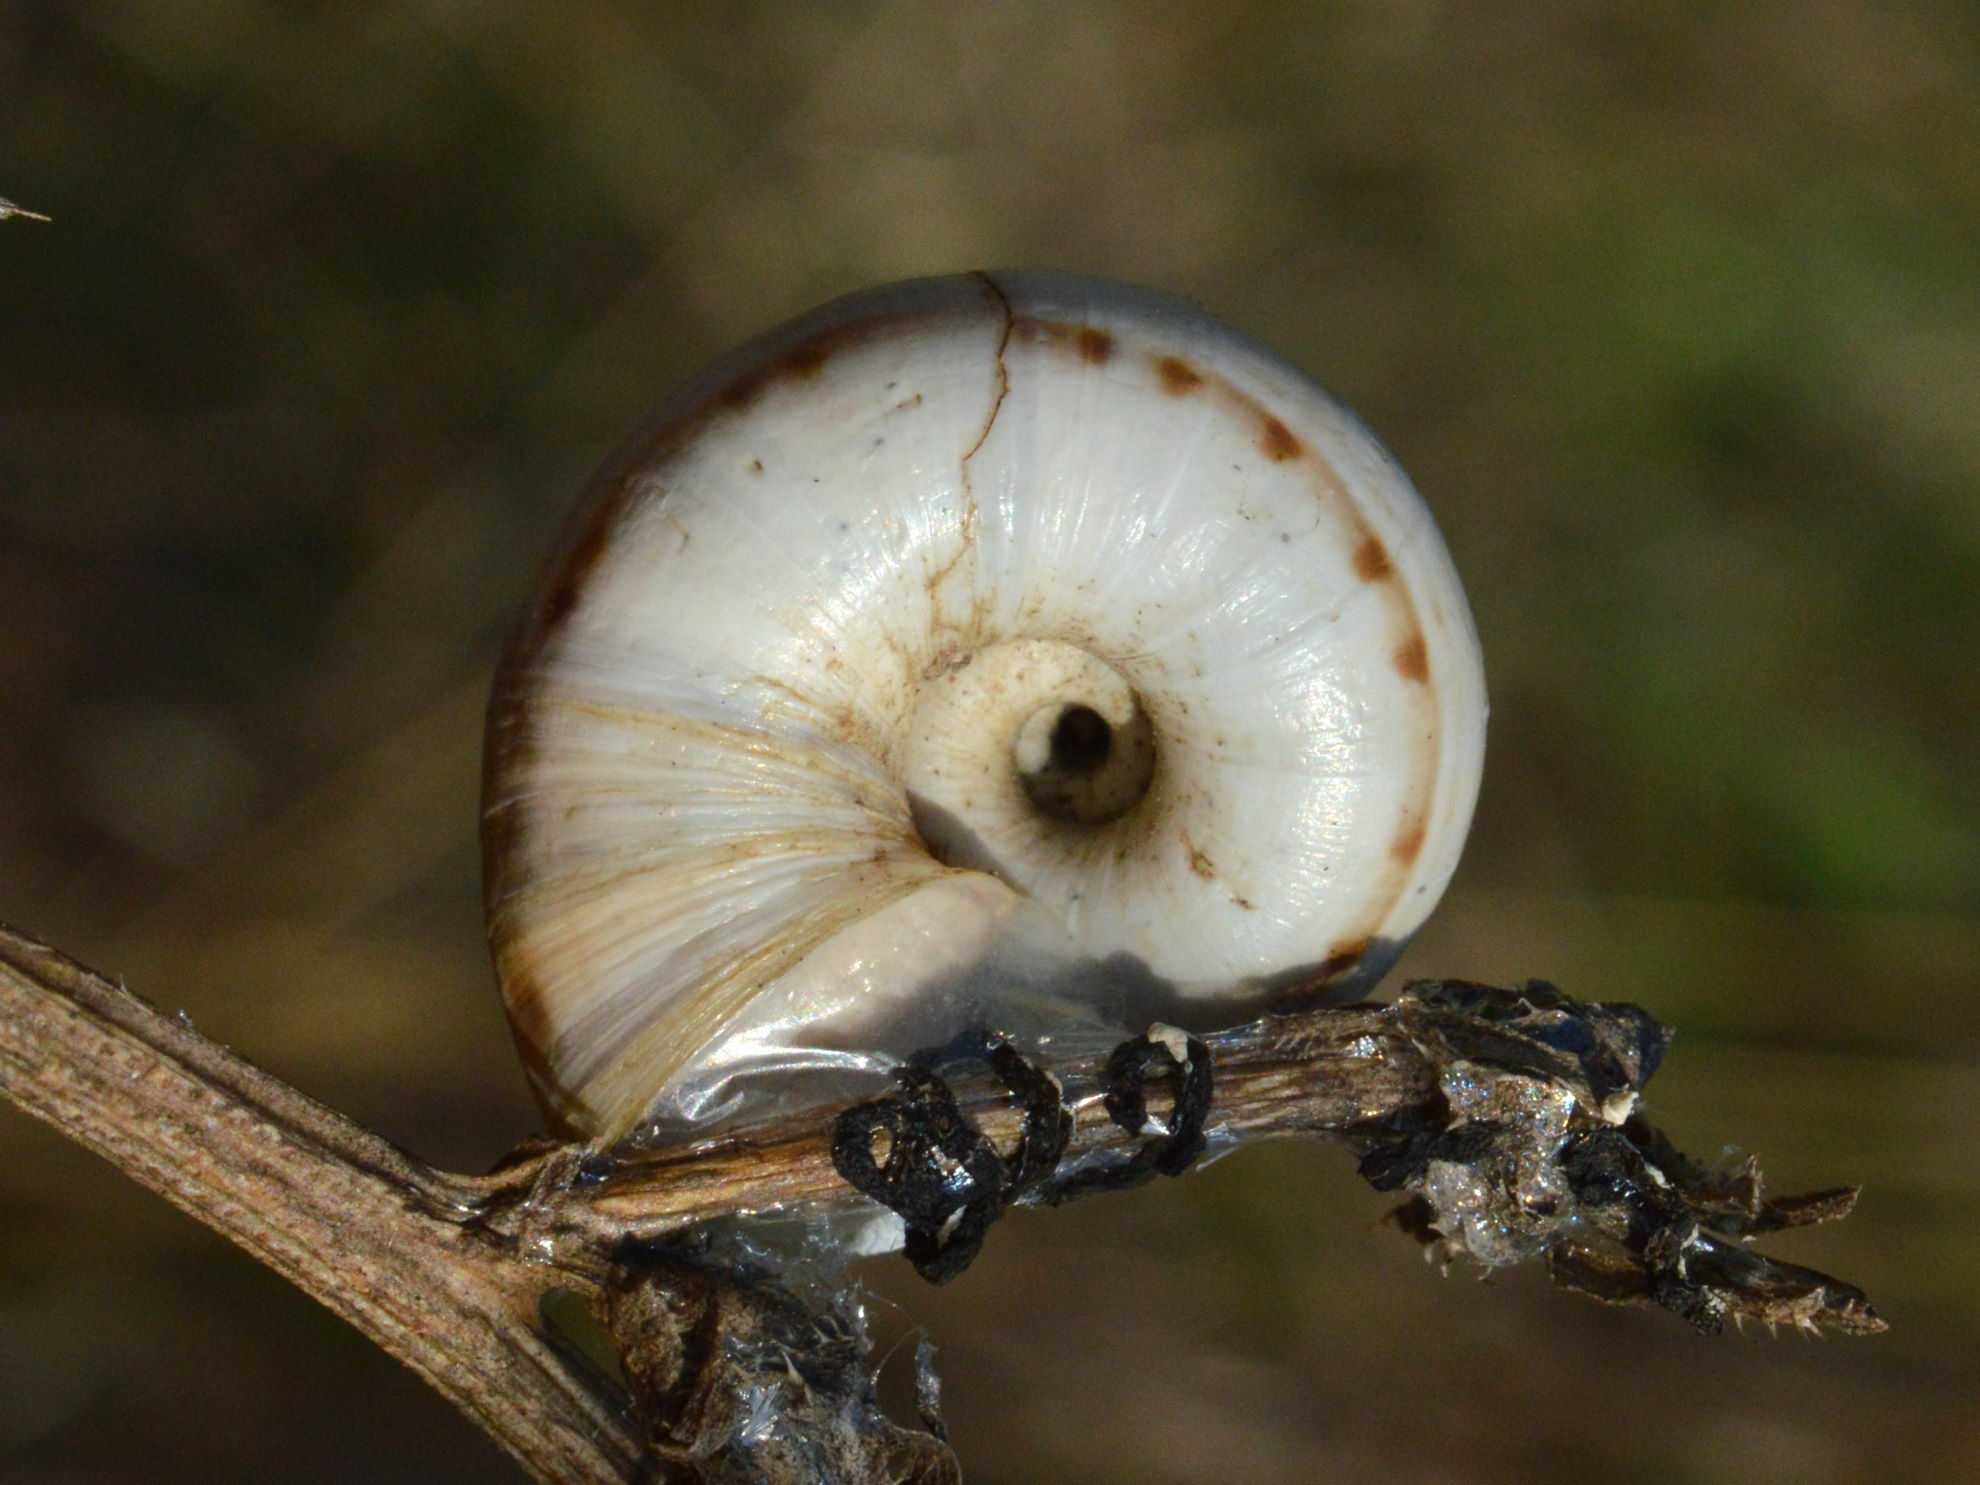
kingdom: Animalia
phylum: Mollusca
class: Gastropoda
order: Stylommatophora
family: Geomitridae
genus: Xerolenta
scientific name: Xerolenta obvia
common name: White heath snail
